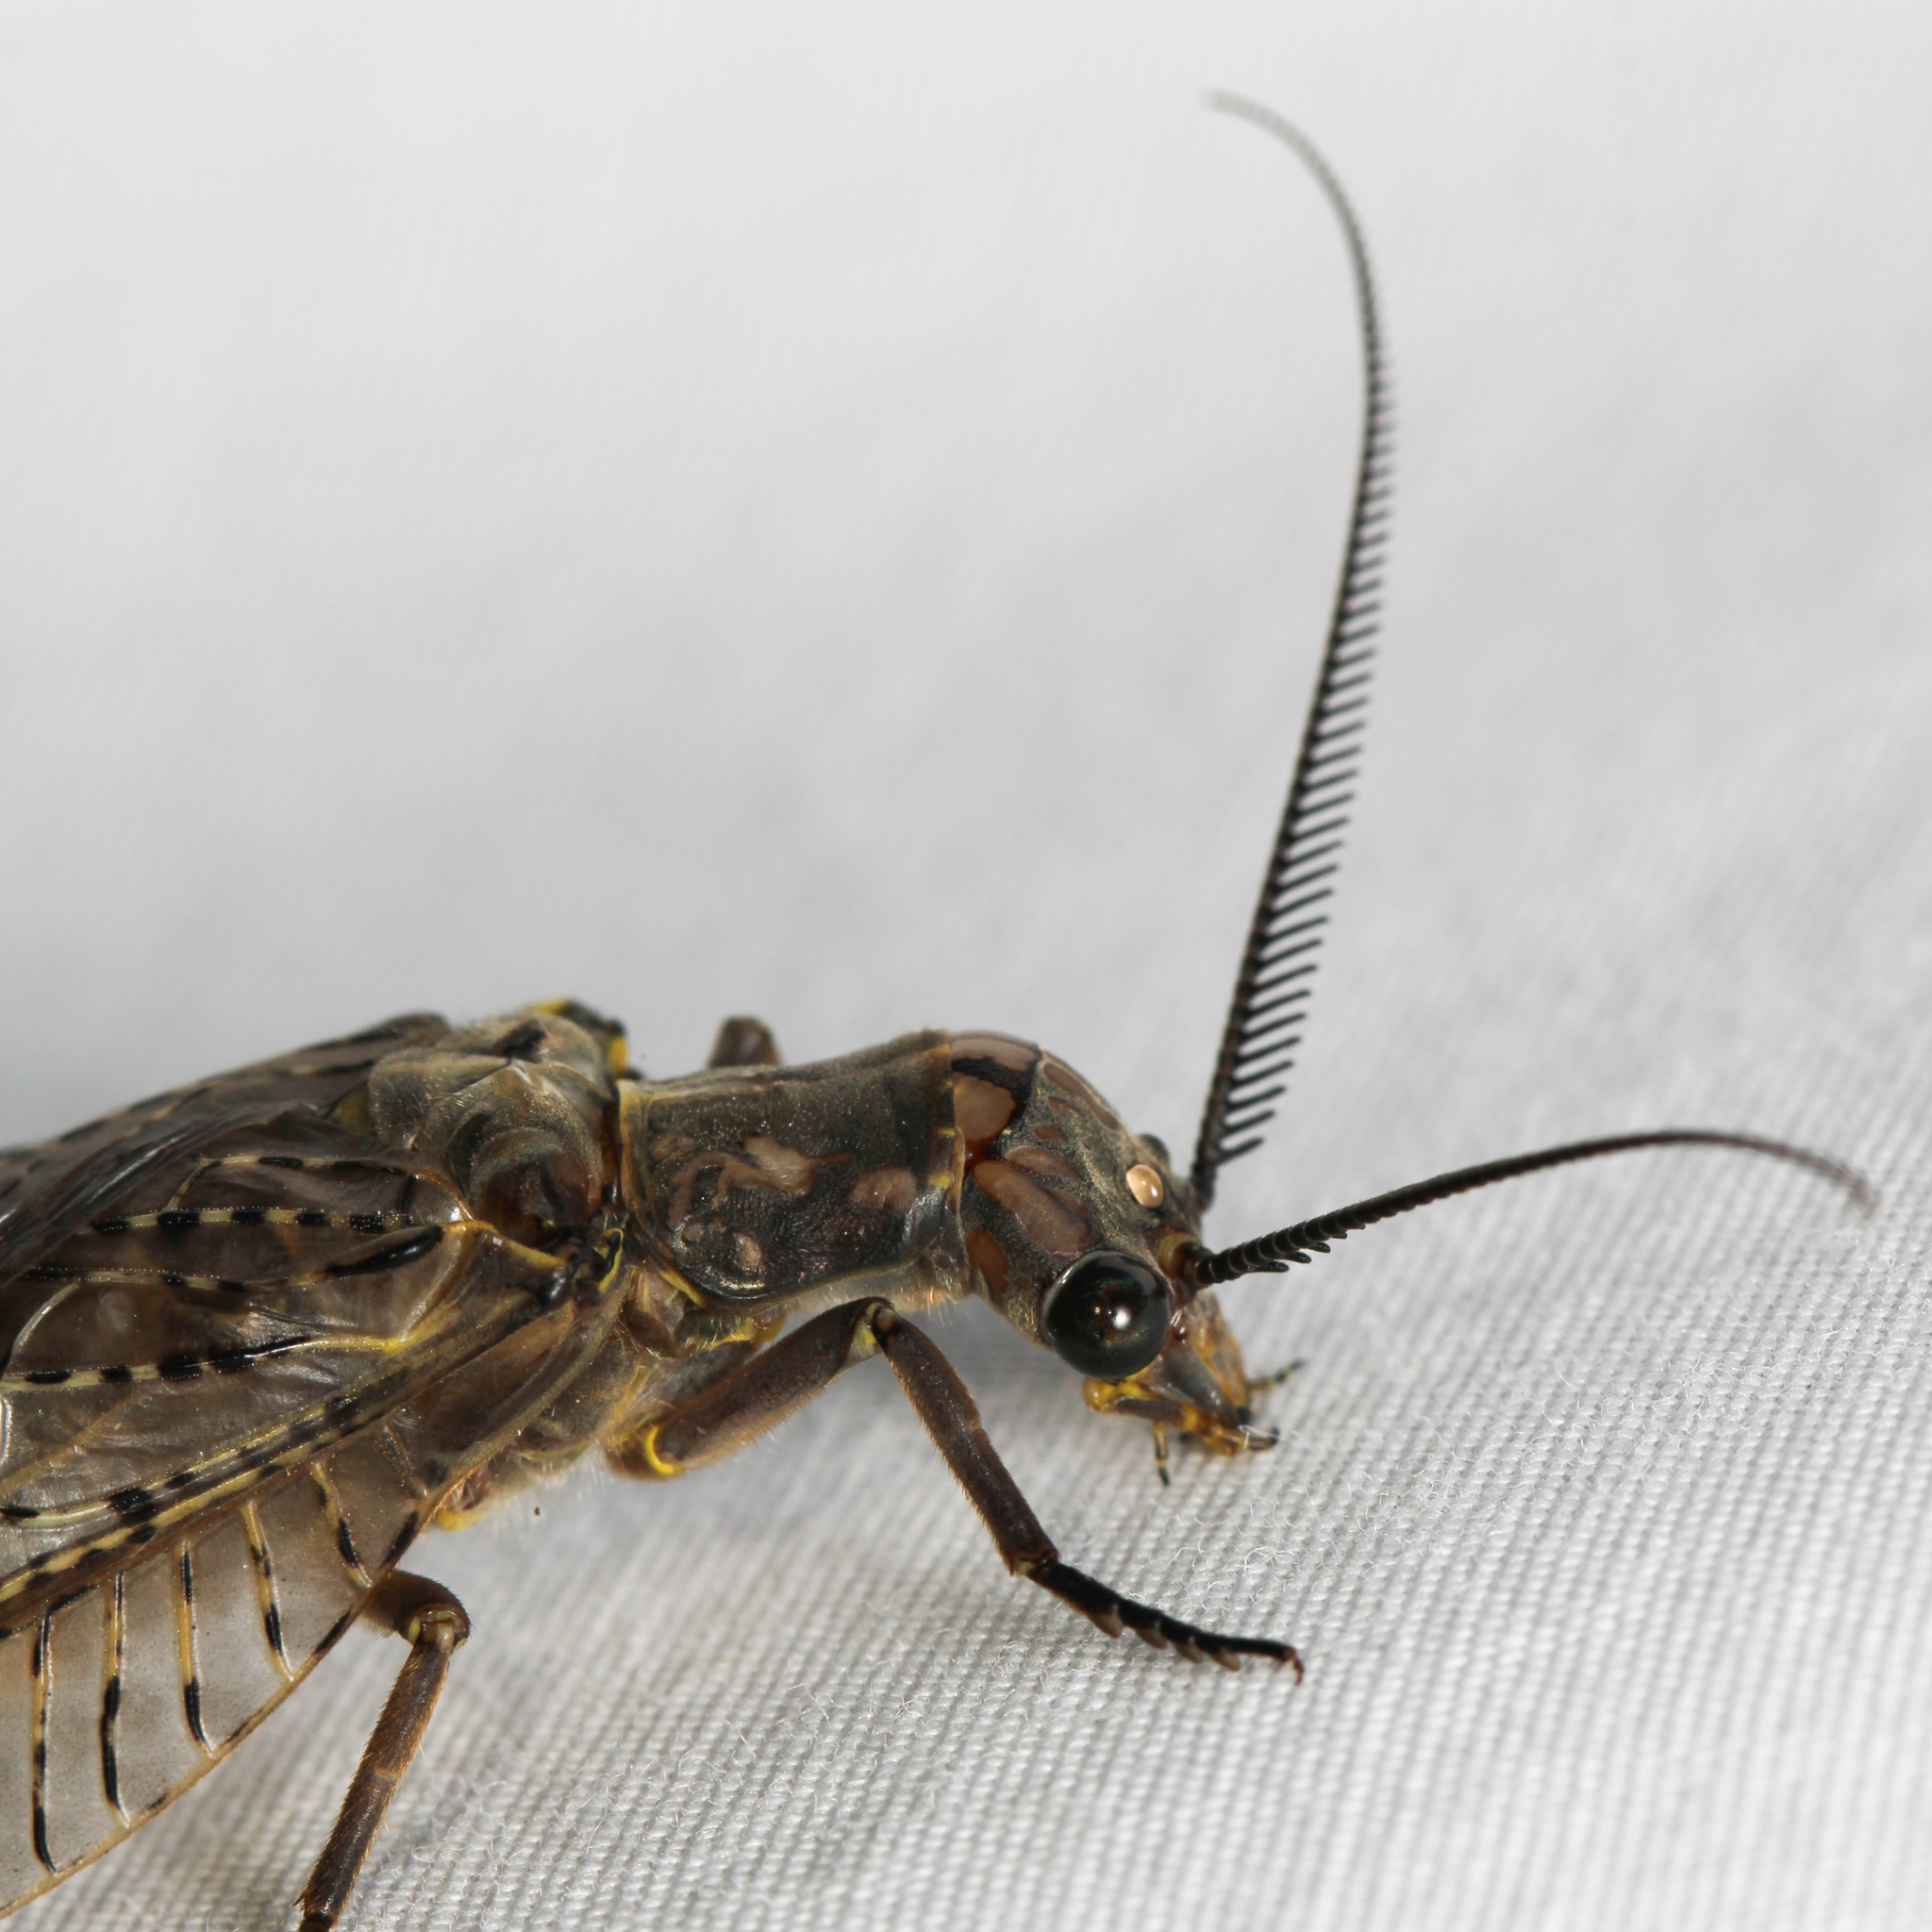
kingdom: Animalia
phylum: Arthropoda
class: Insecta
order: Megaloptera
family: Corydalidae
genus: Chauliodes
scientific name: Chauliodes pectinicornis
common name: Summer fishfly
